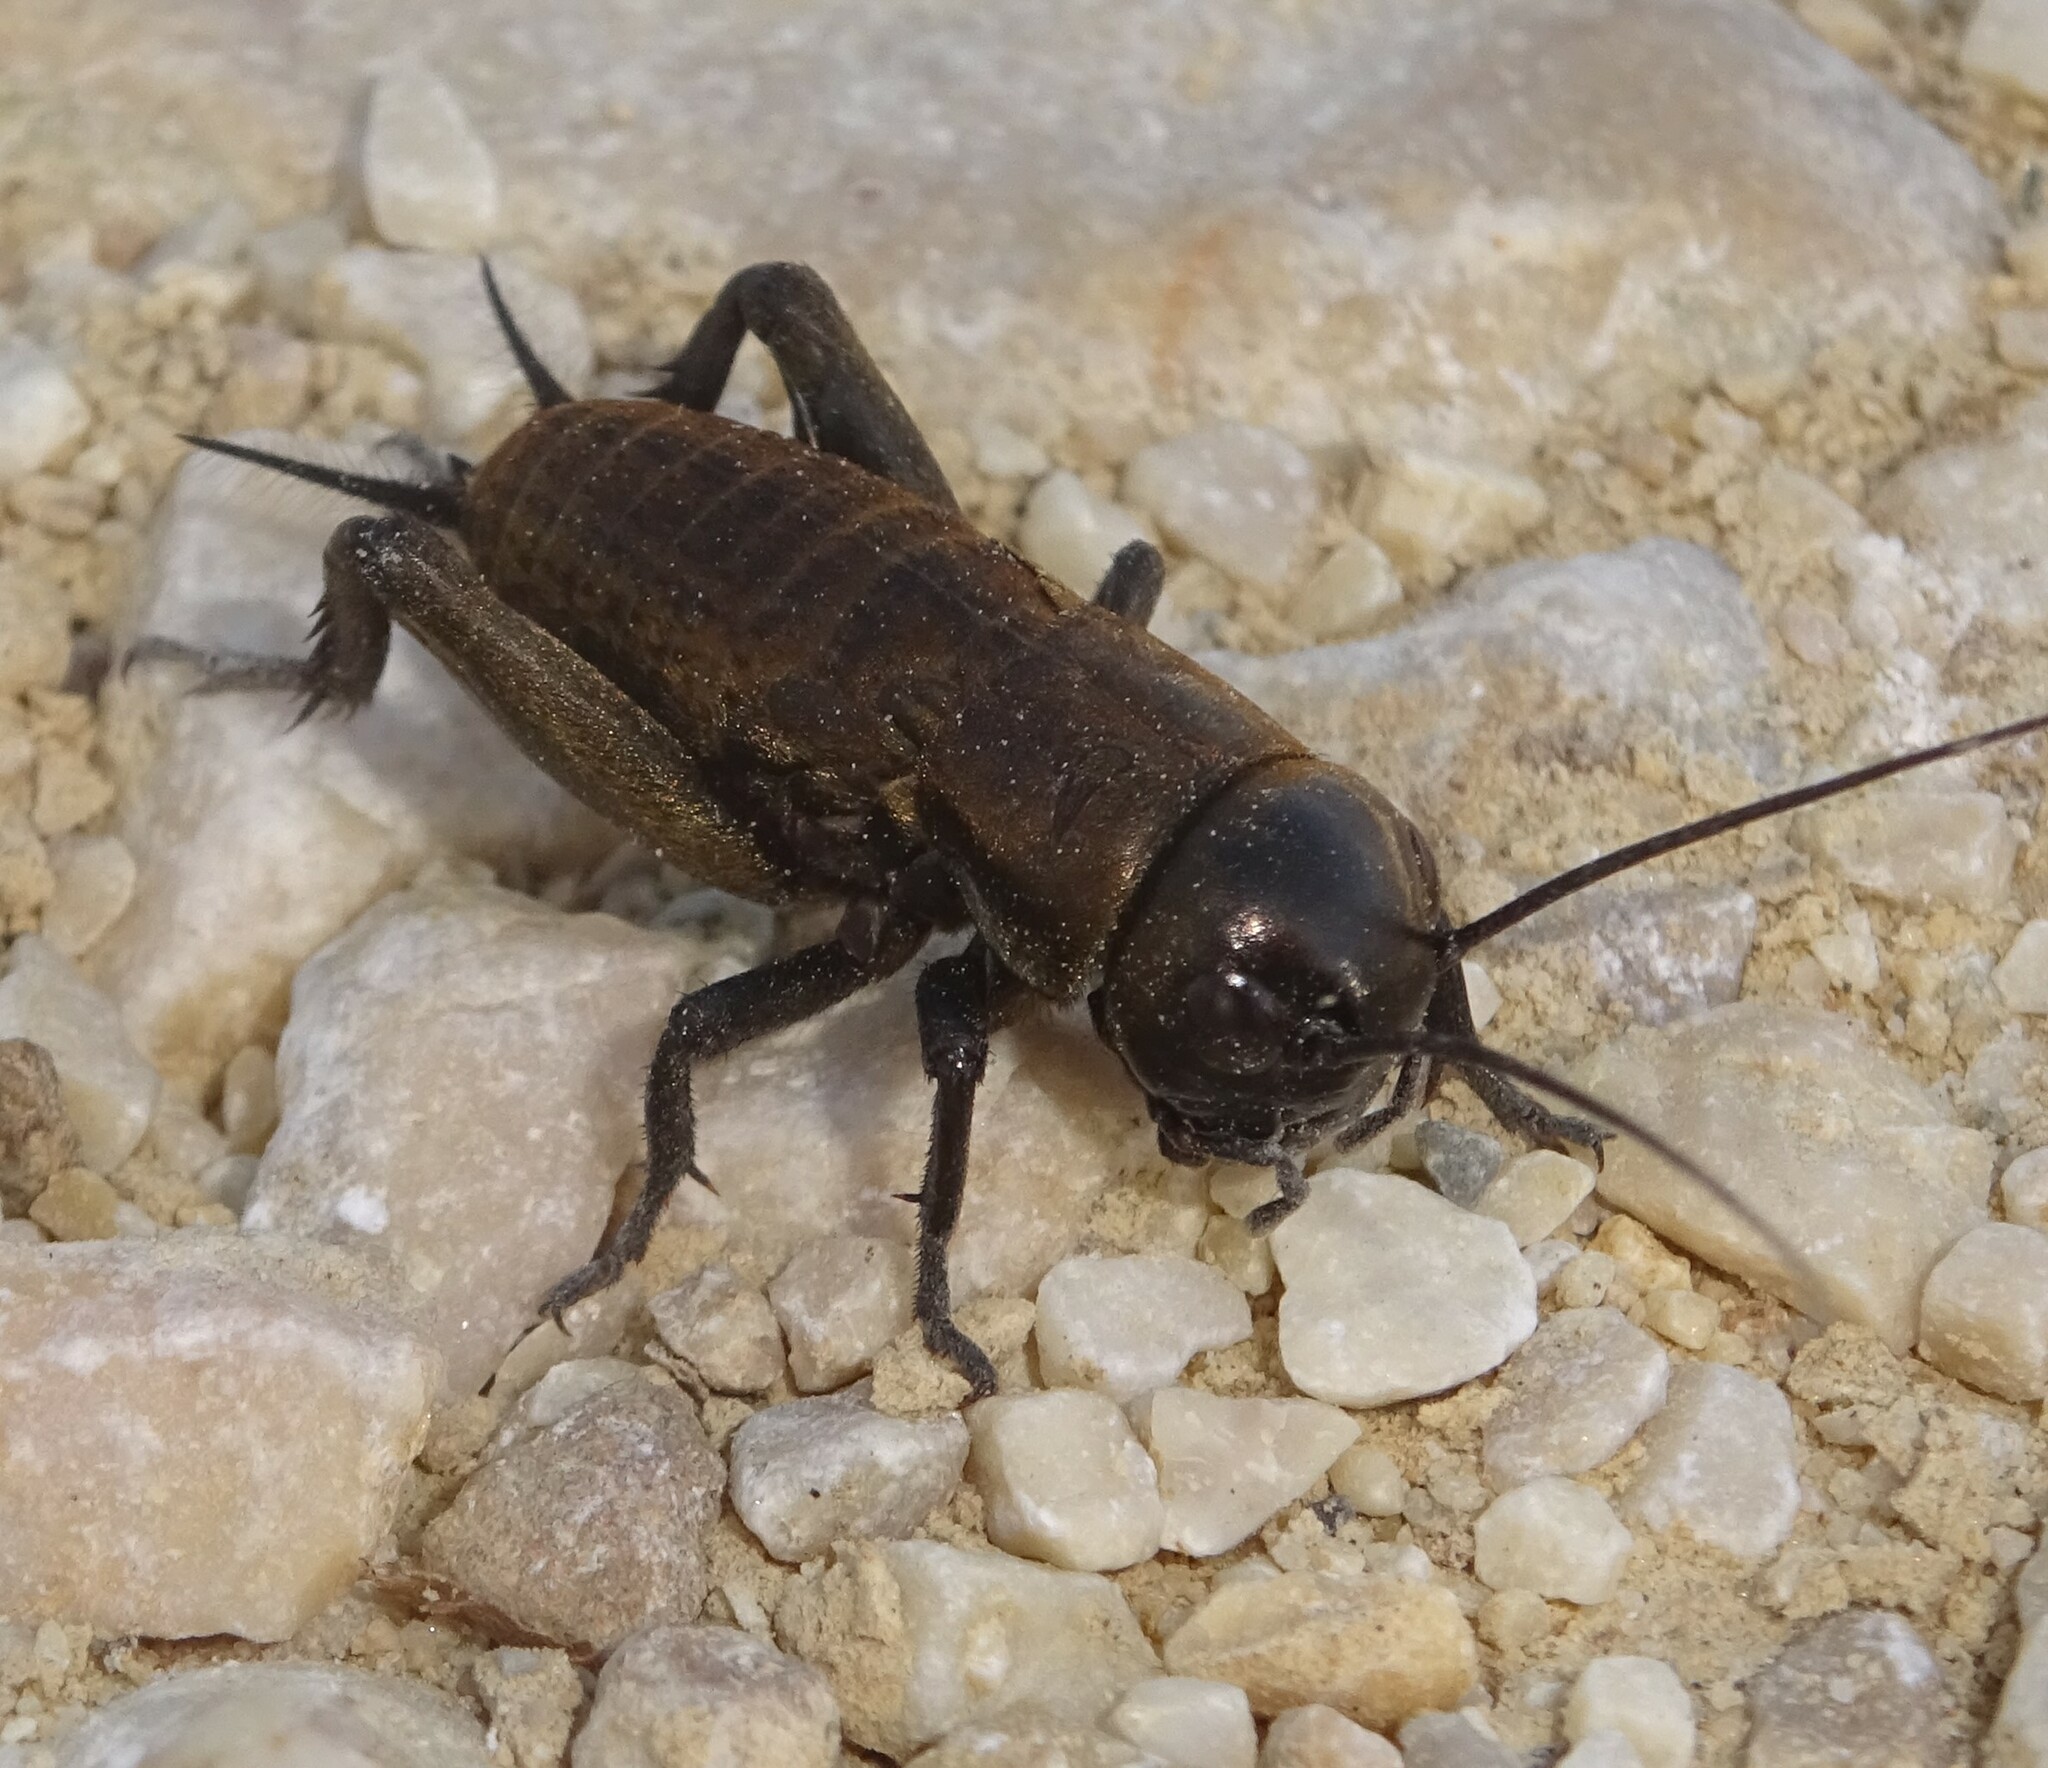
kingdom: Animalia
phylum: Arthropoda
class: Insecta
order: Orthoptera
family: Gryllidae
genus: Gryllus
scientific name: Gryllus campestris
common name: Field cricket
